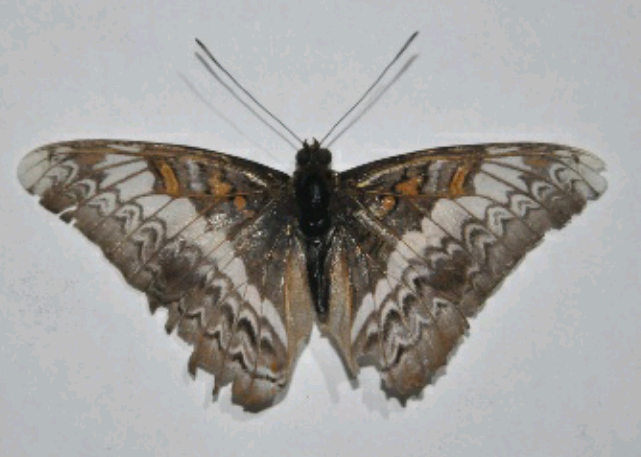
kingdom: Animalia
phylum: Arthropoda
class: Insecta
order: Lepidoptera
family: Nymphalidae
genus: Lebadea
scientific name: Lebadea martha
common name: Knight
